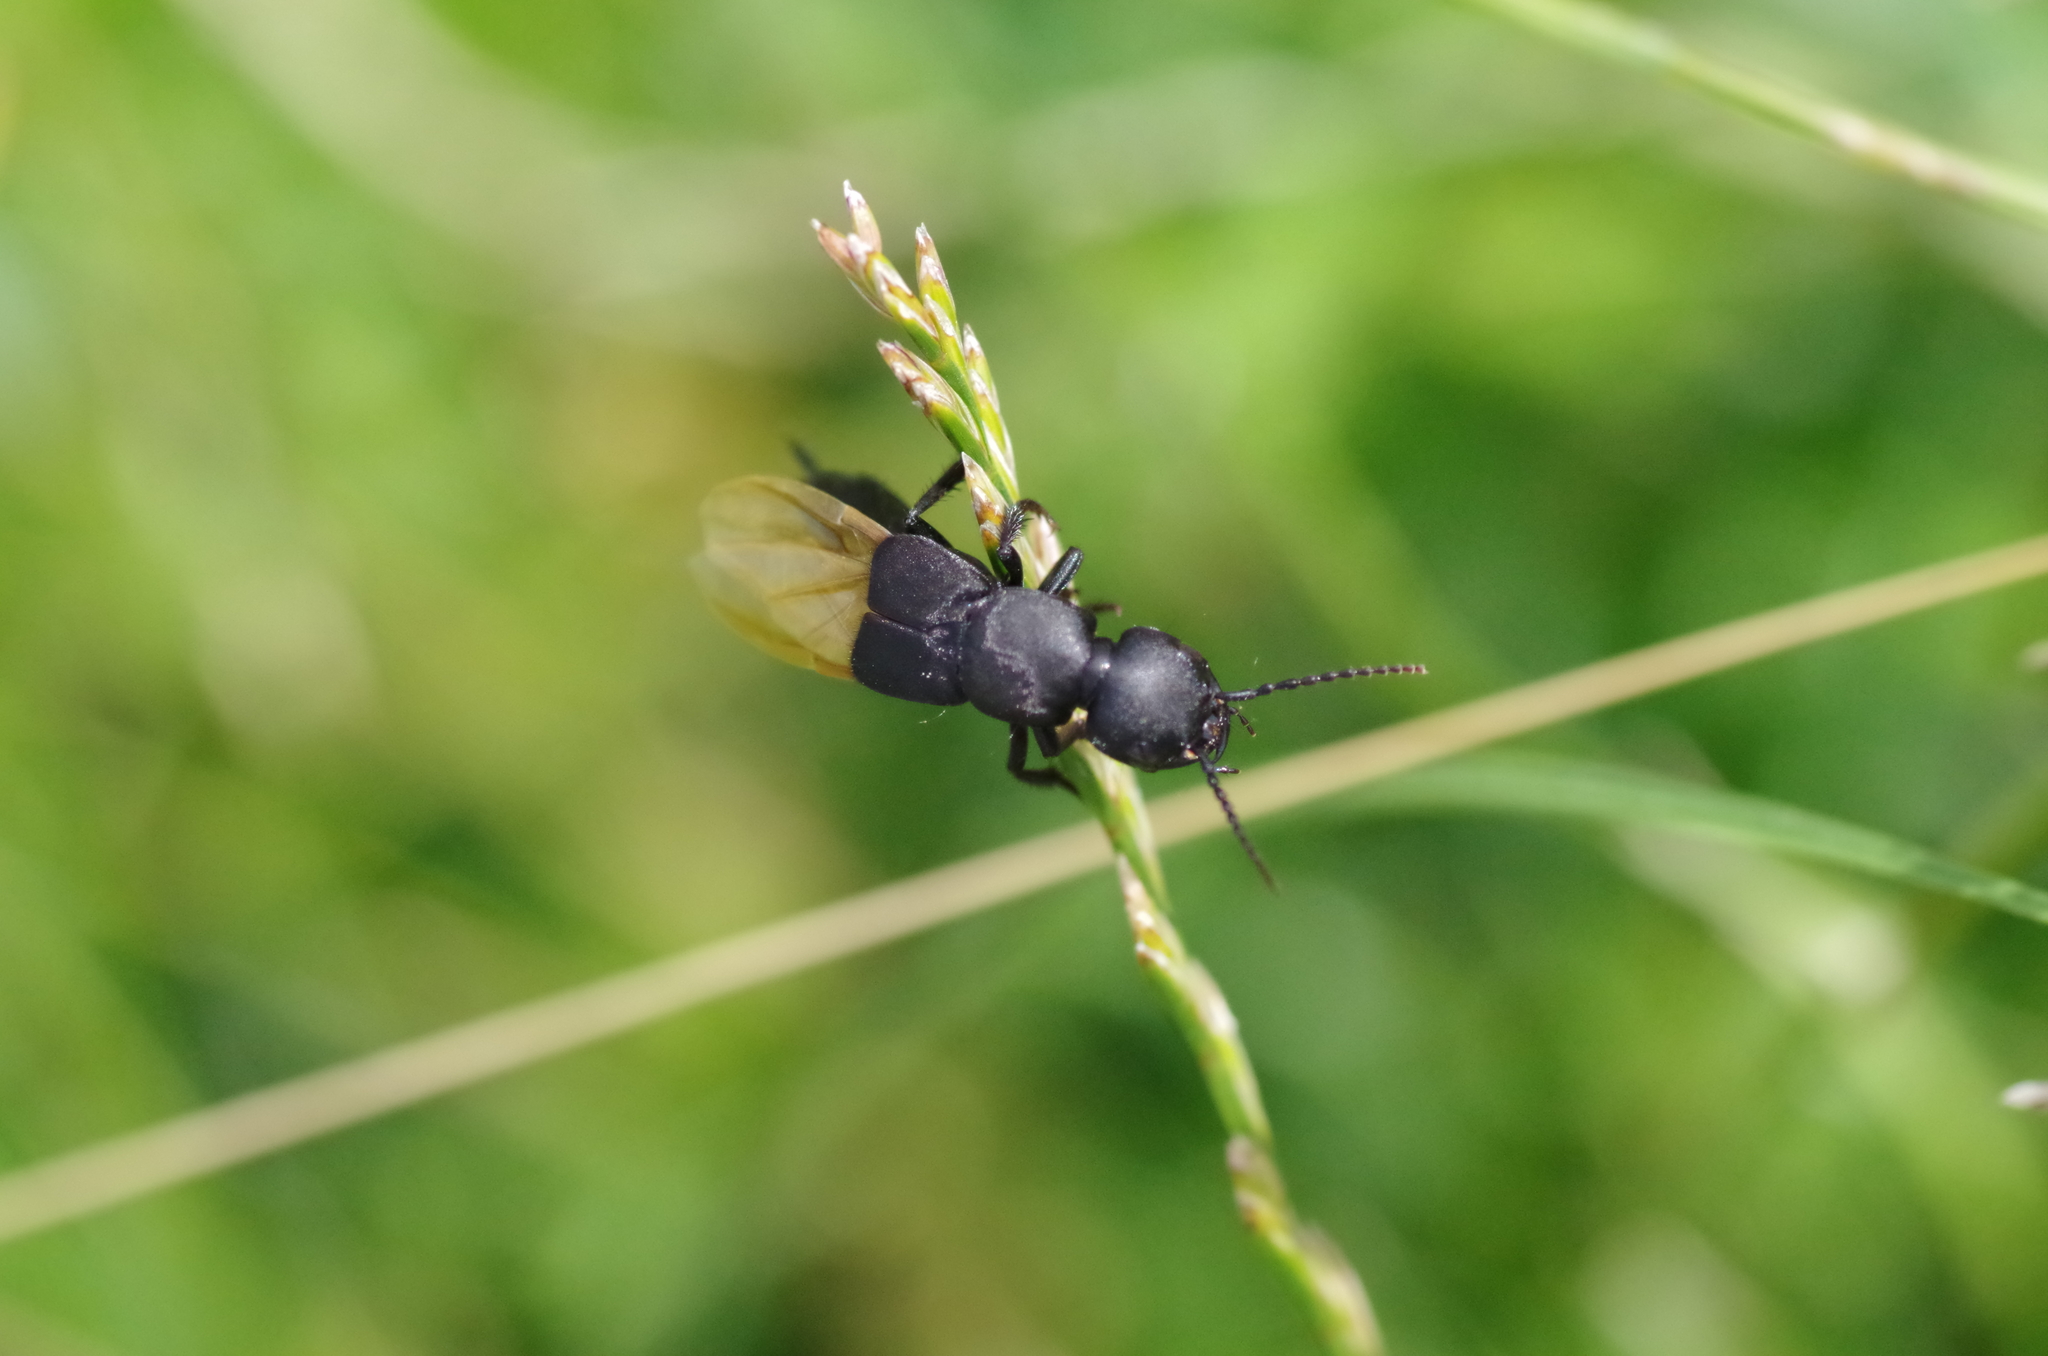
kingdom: Animalia
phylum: Arthropoda
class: Insecta
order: Coleoptera
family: Staphylinidae
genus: Ocypus
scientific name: Ocypus olens
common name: Devil's coach-horse
